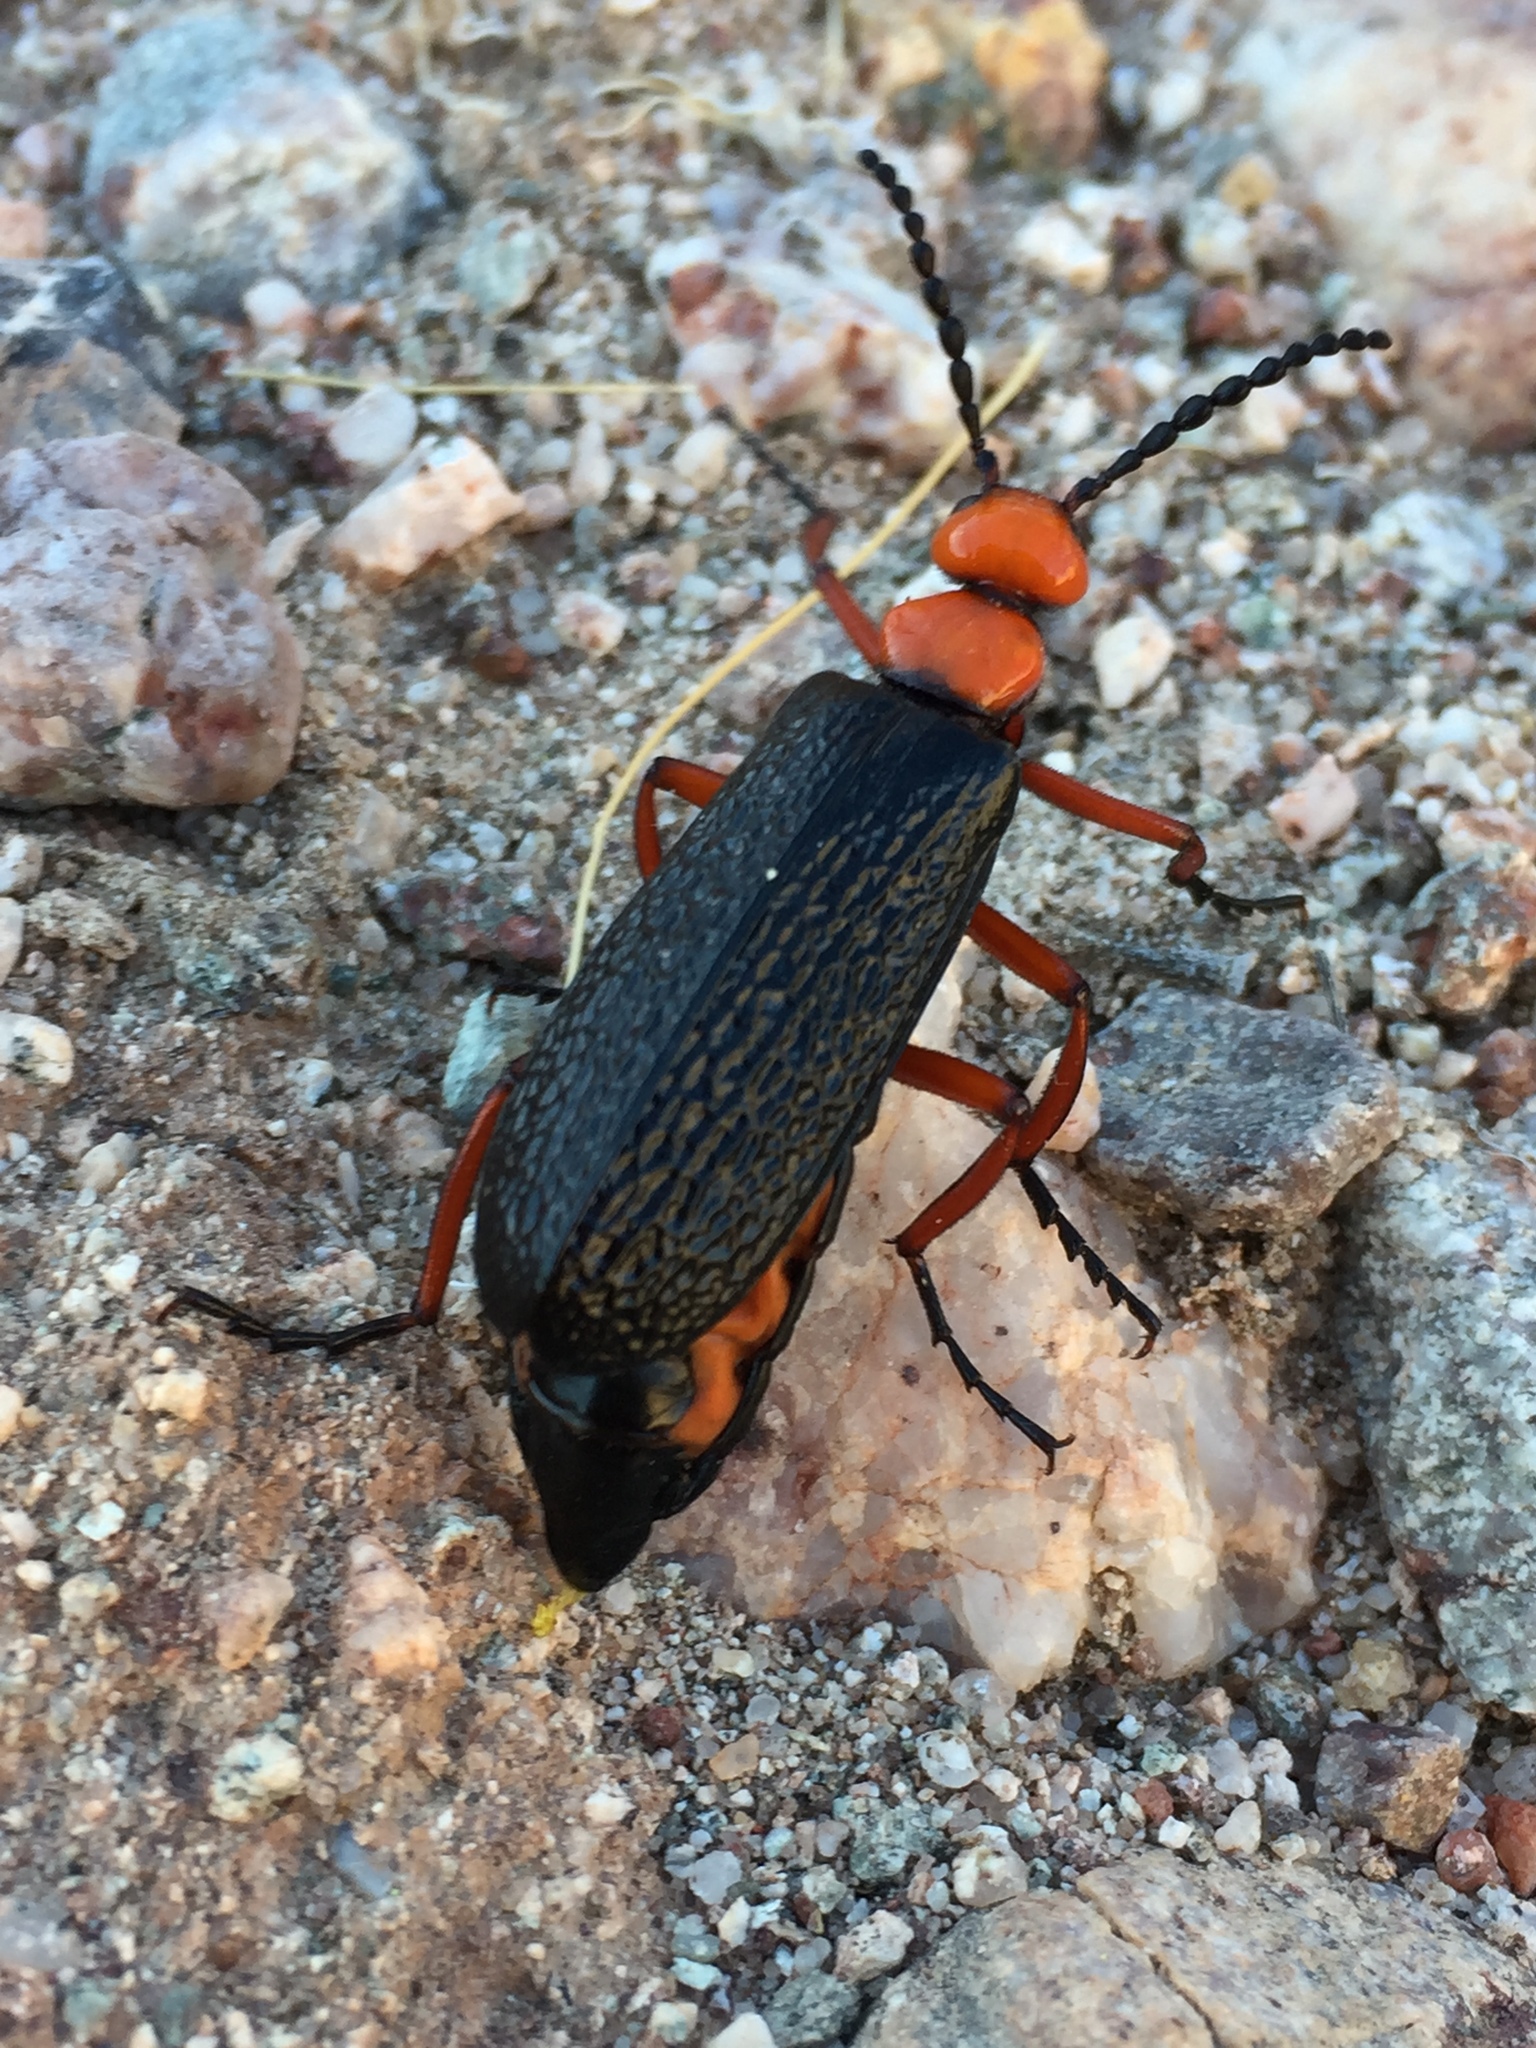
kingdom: Animalia
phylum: Arthropoda
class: Insecta
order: Coleoptera
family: Meloidae
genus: Lytta
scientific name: Lytta magister
